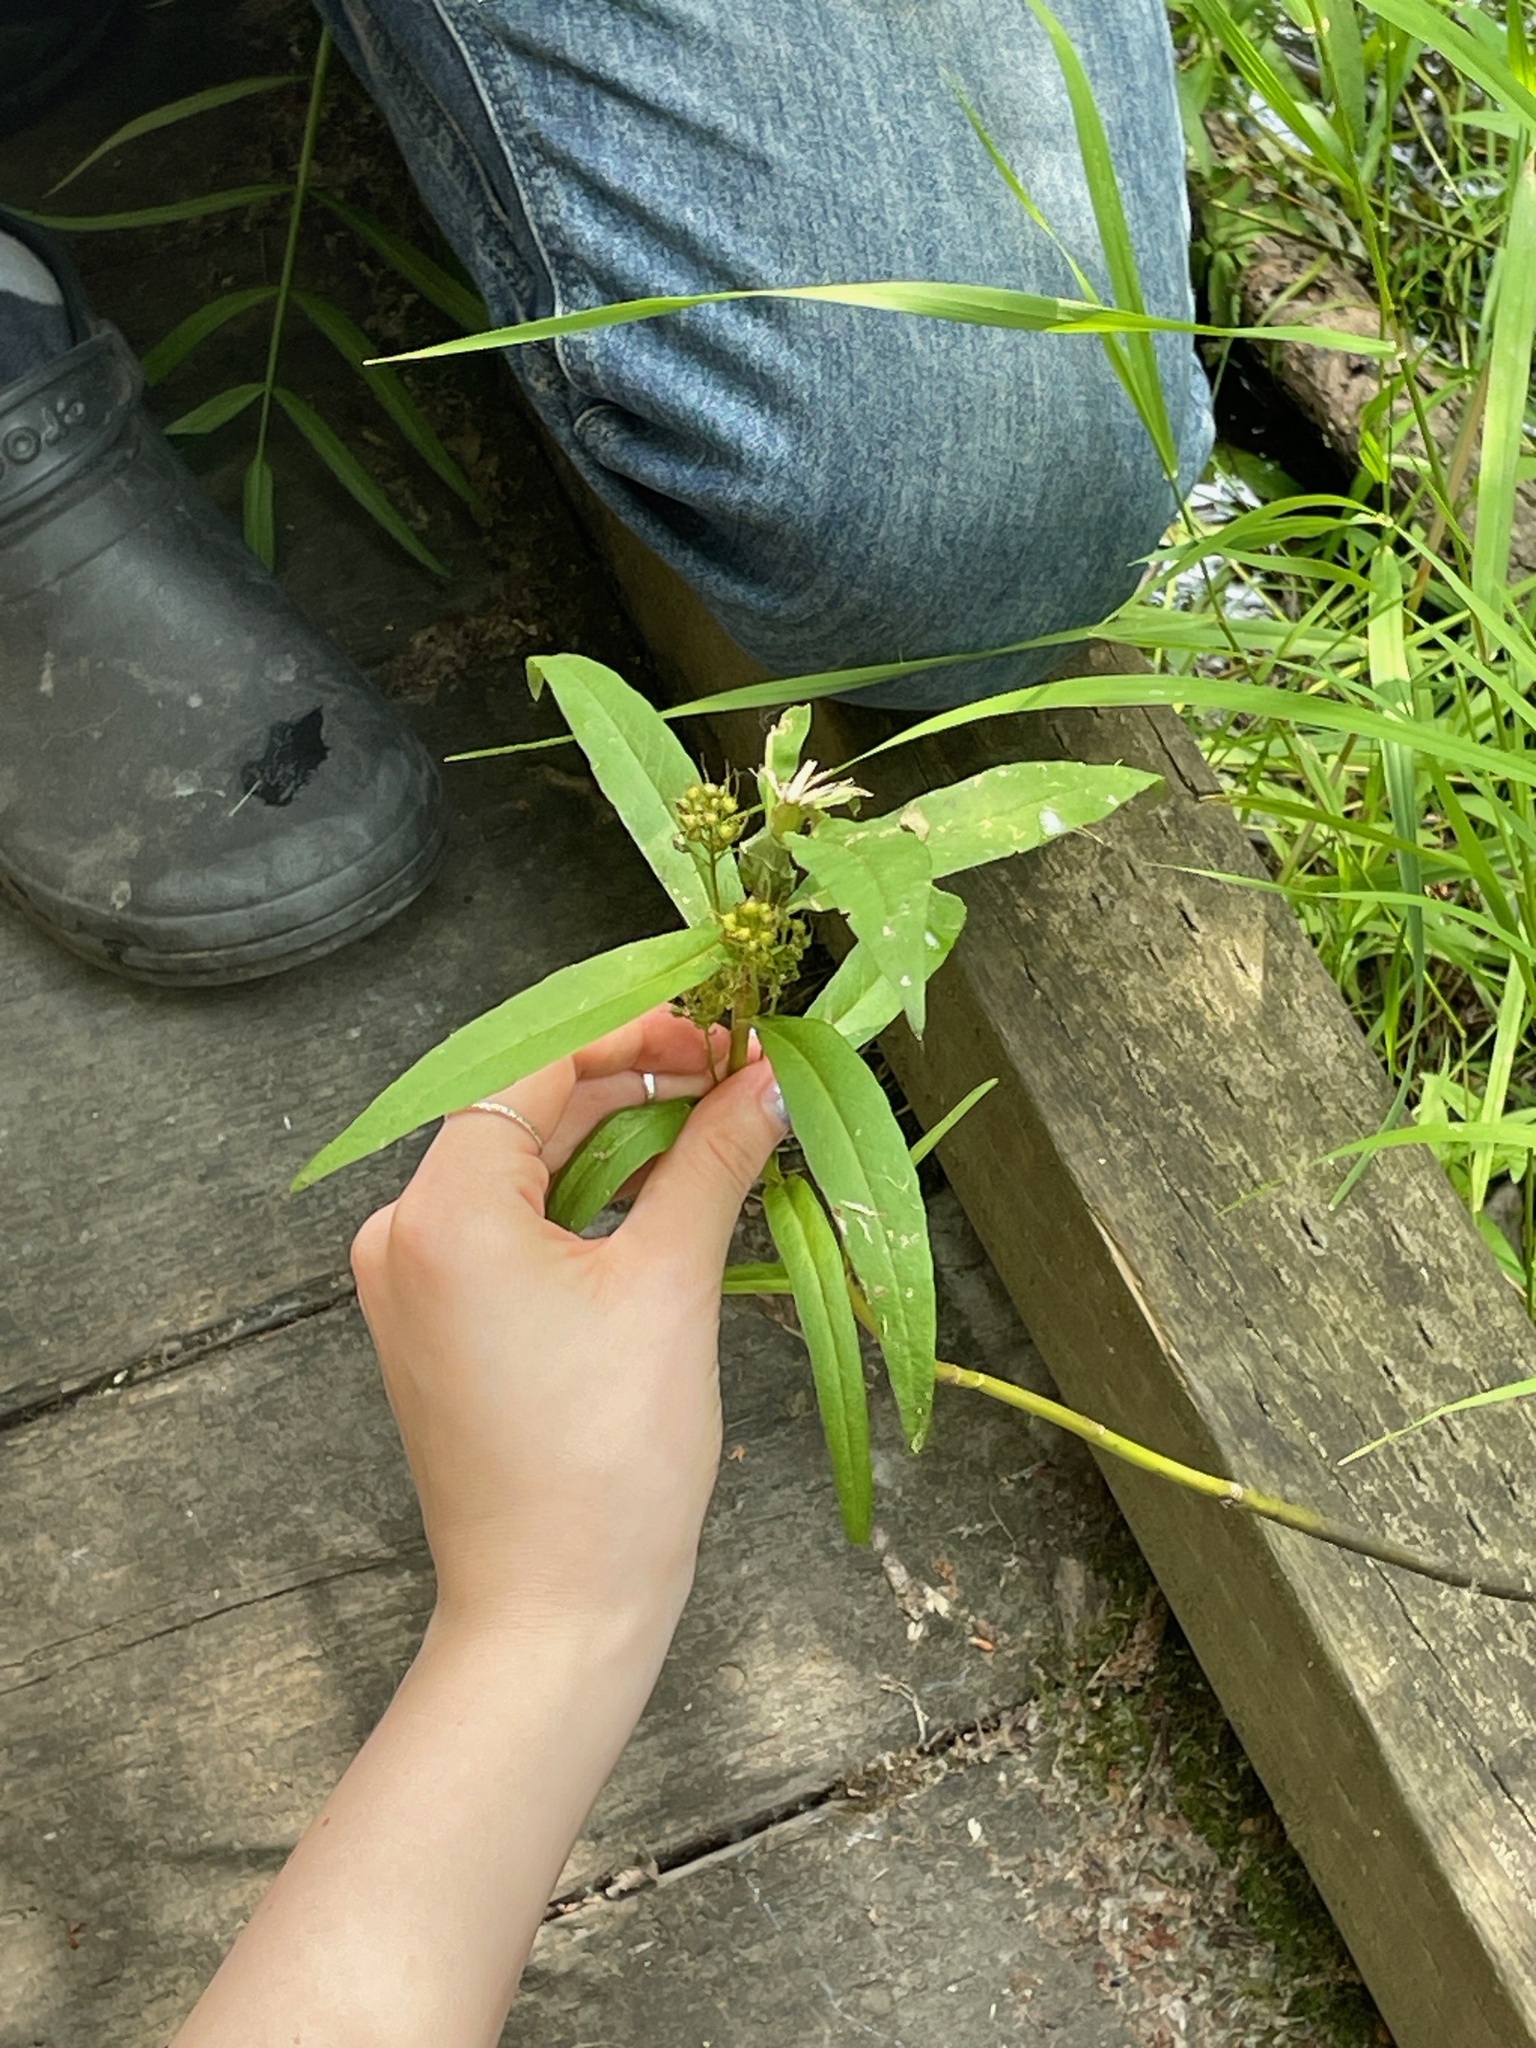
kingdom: Plantae
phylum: Tracheophyta
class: Magnoliopsida
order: Ericales
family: Primulaceae
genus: Lysimachia
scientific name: Lysimachia thyrsiflora
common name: Tufted loosestrife
